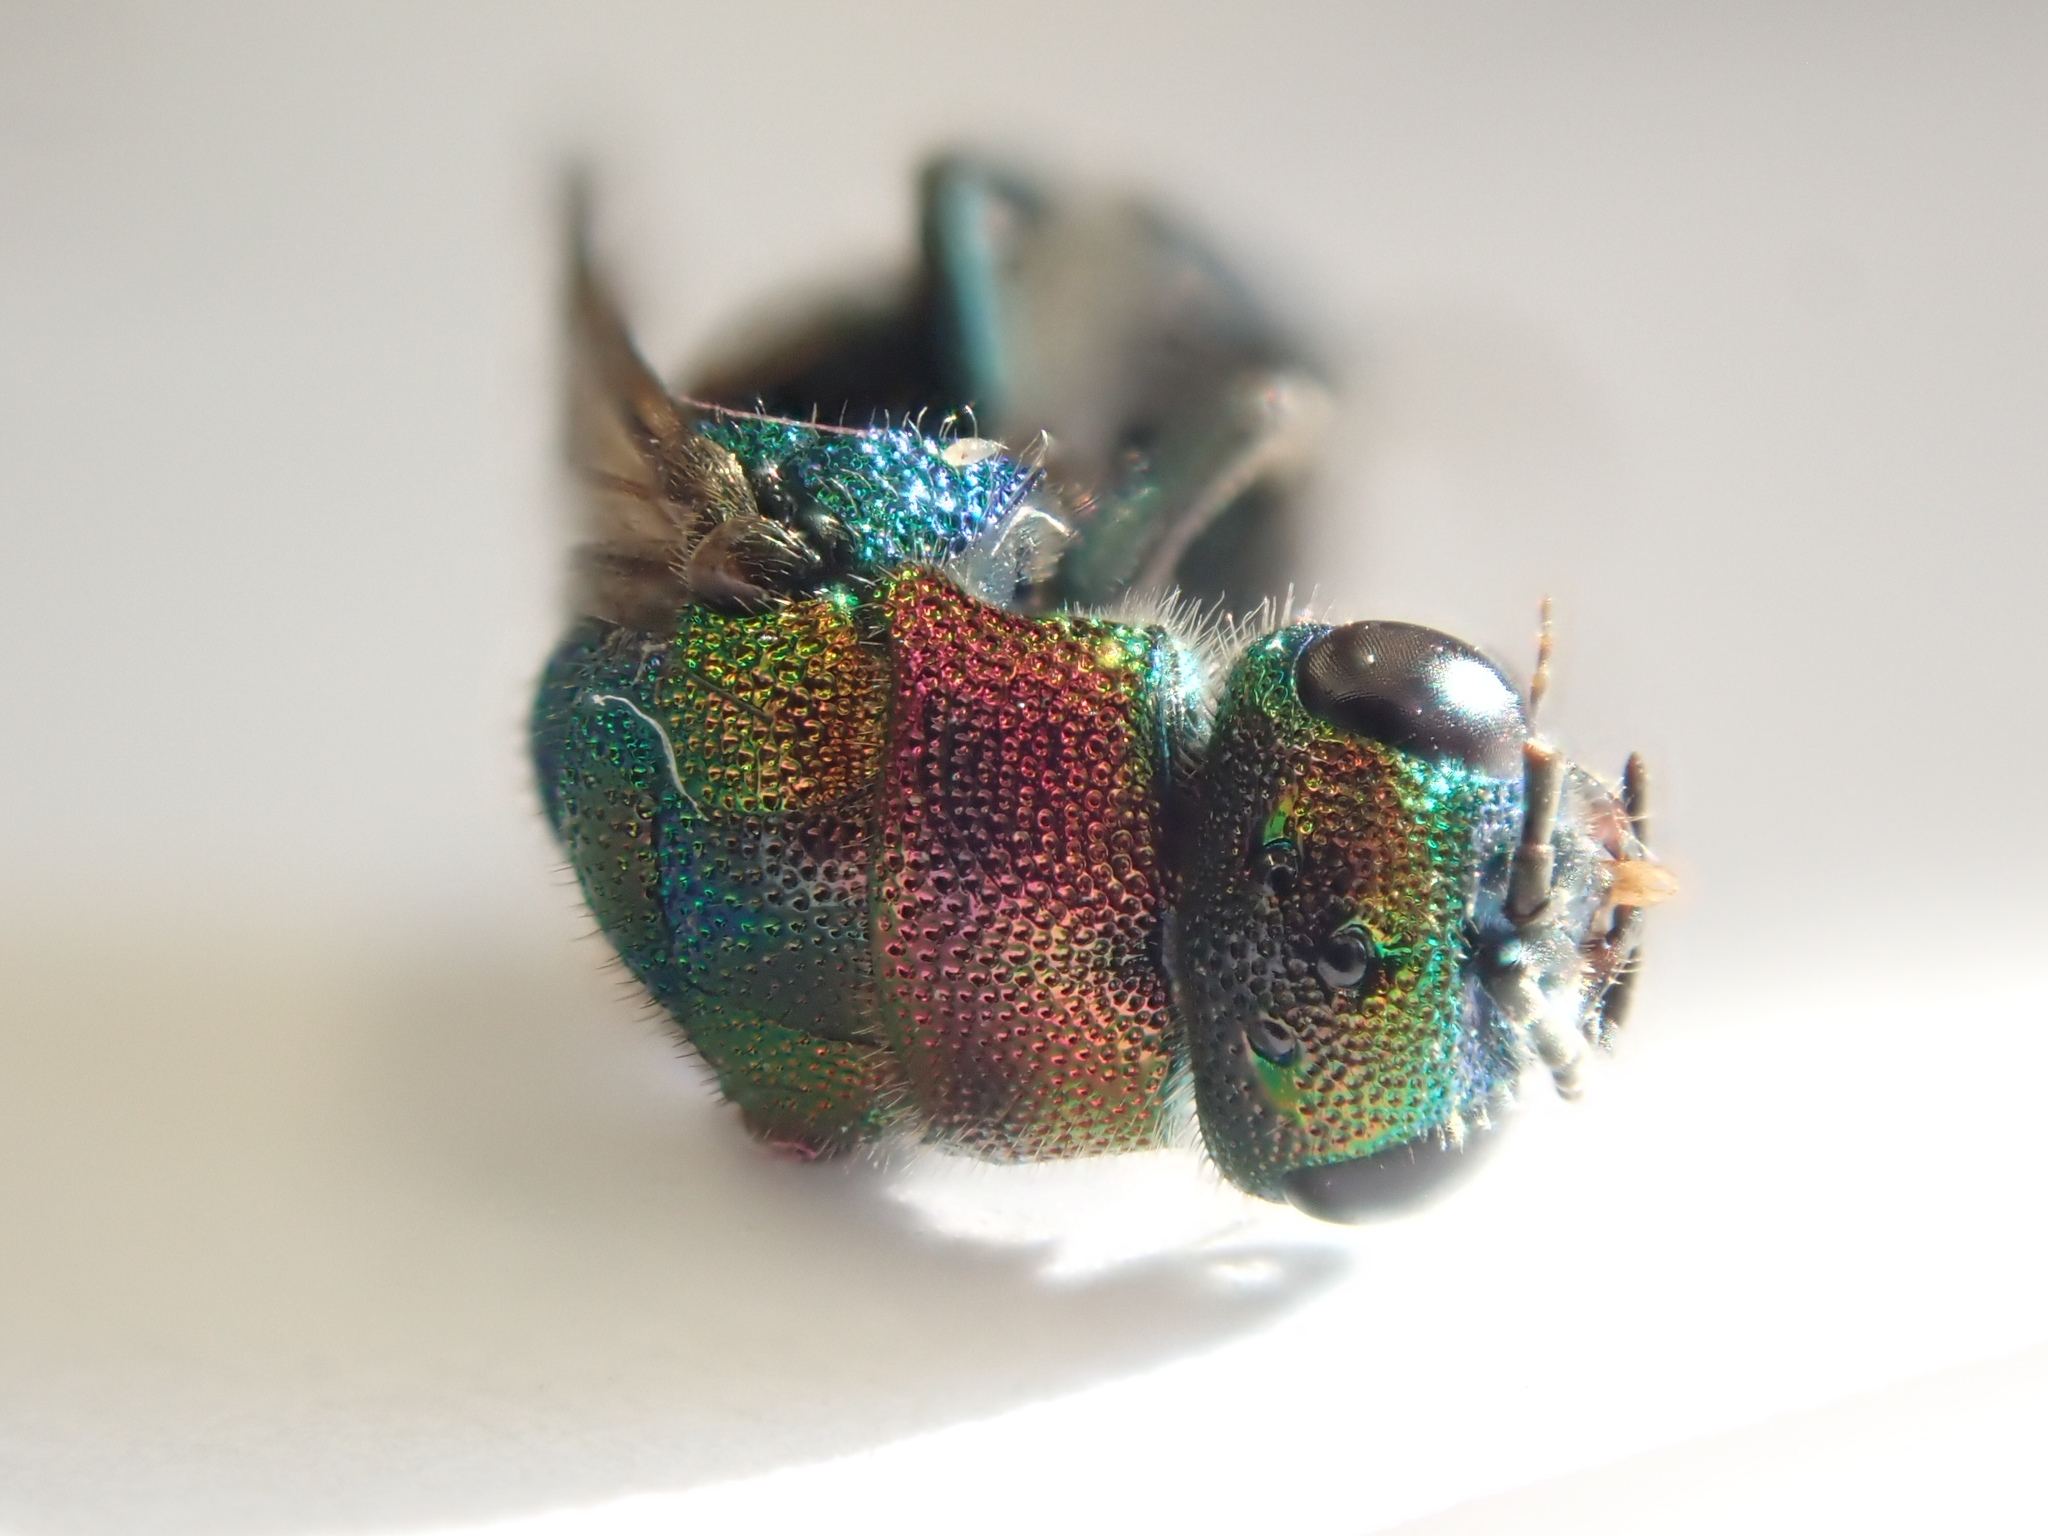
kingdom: Animalia
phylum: Arthropoda
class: Insecta
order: Hymenoptera
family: Chrysididae
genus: Hedychrum
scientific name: Hedychrum rutilans
